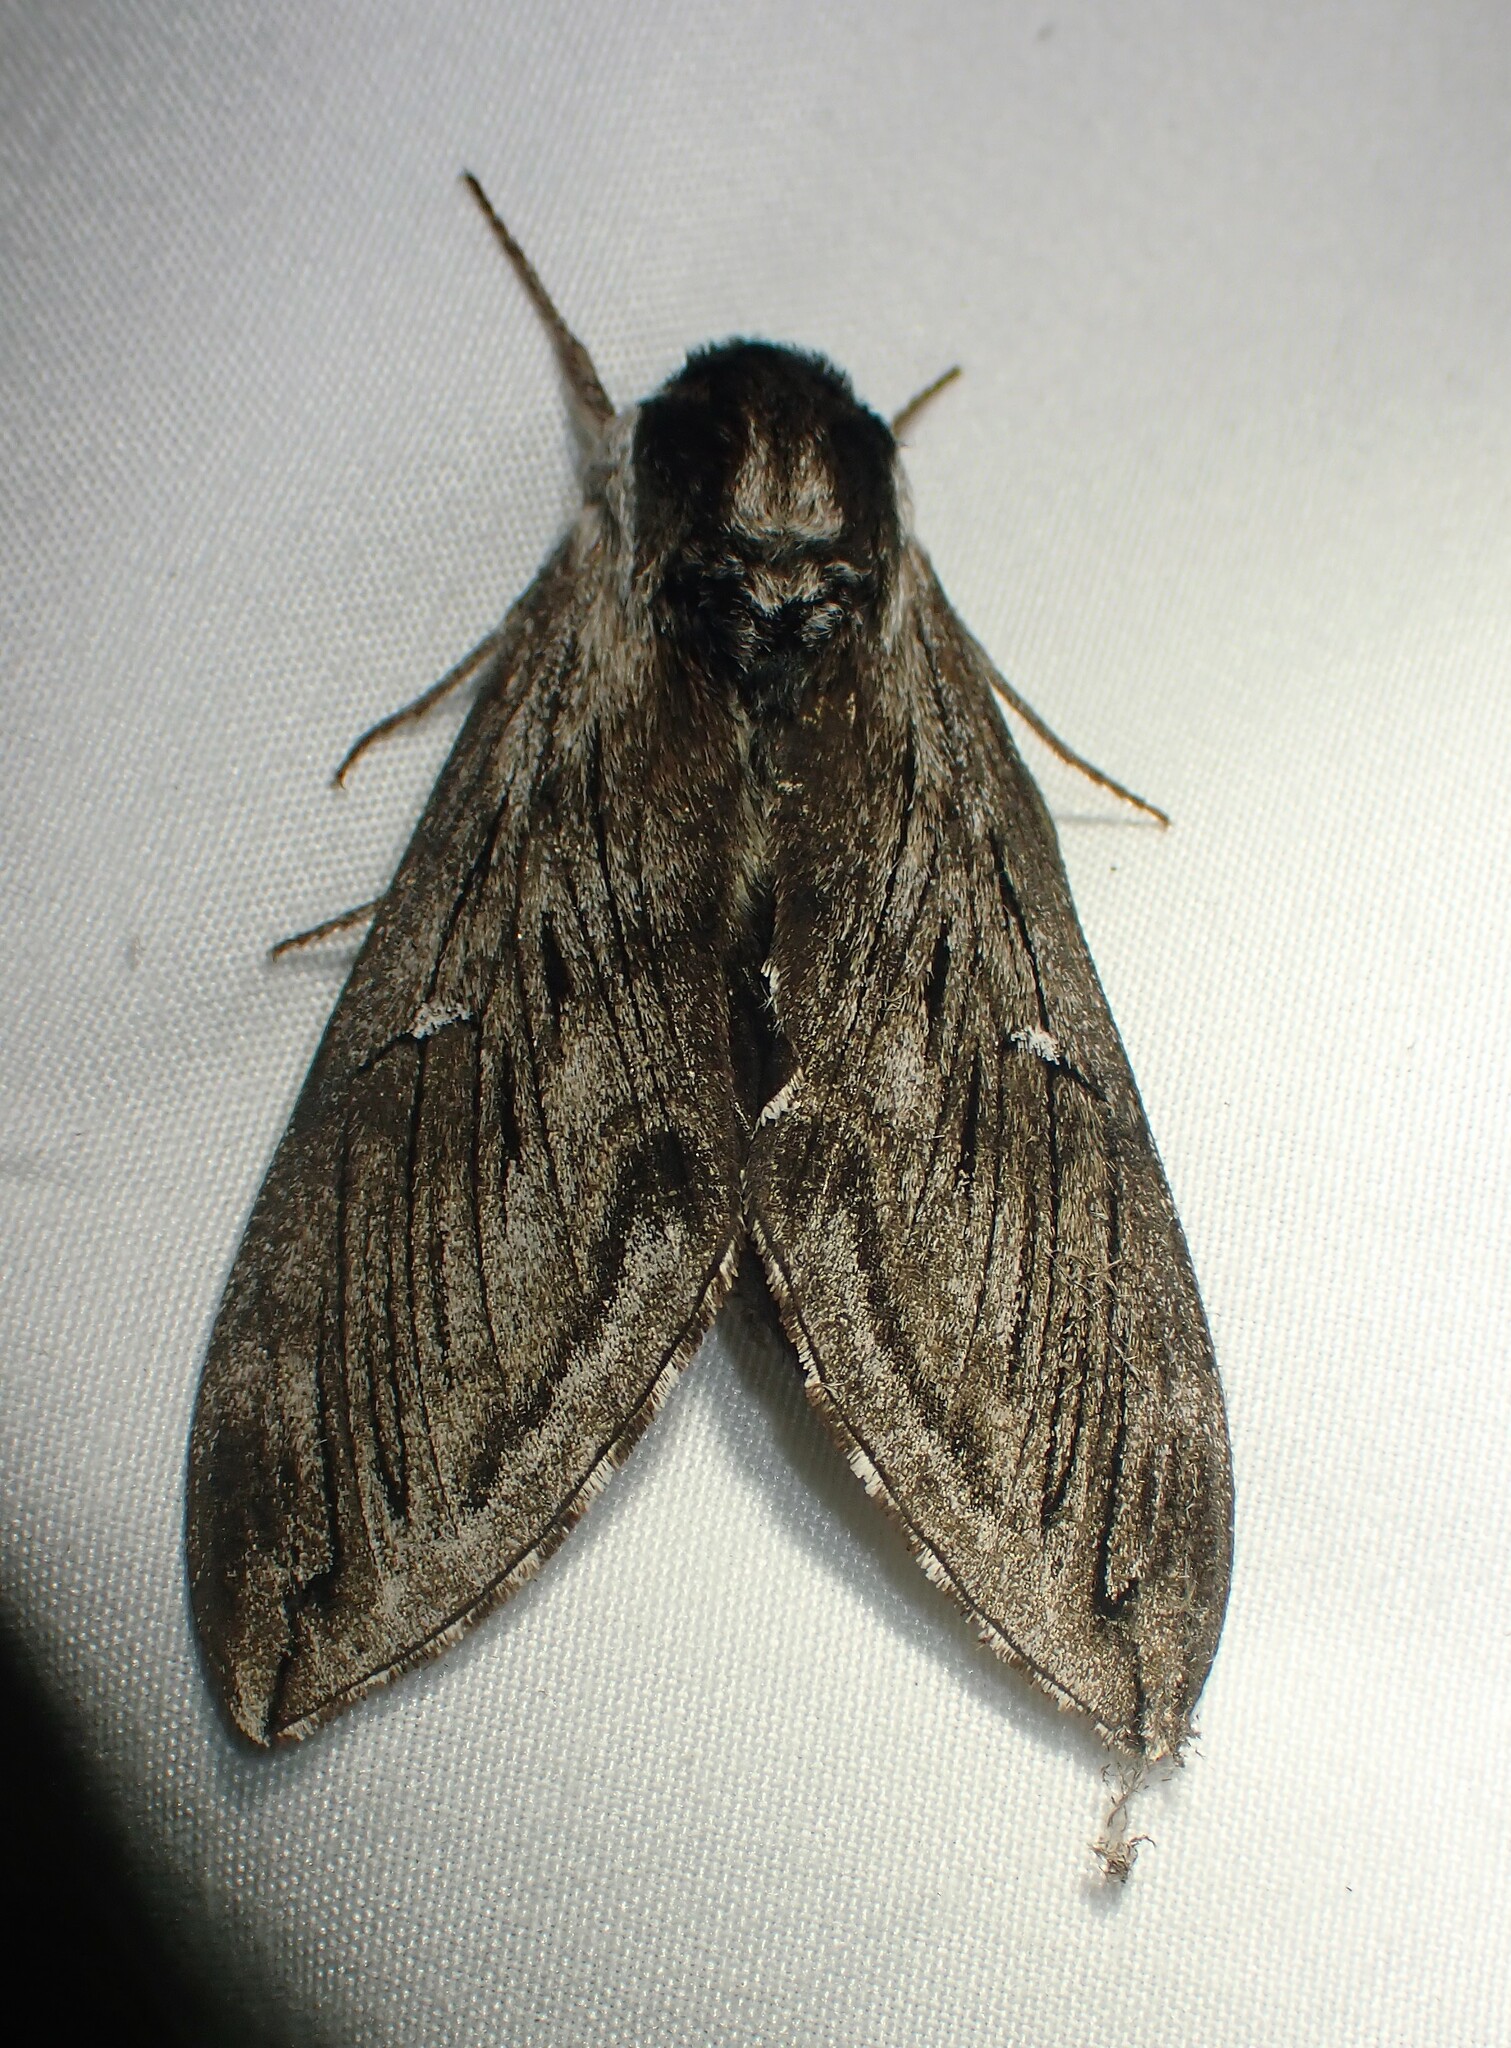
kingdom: Animalia
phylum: Arthropoda
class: Insecta
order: Lepidoptera
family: Sphingidae
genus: Sphinx
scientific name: Sphinx poecila
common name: Northern apple sphinx
